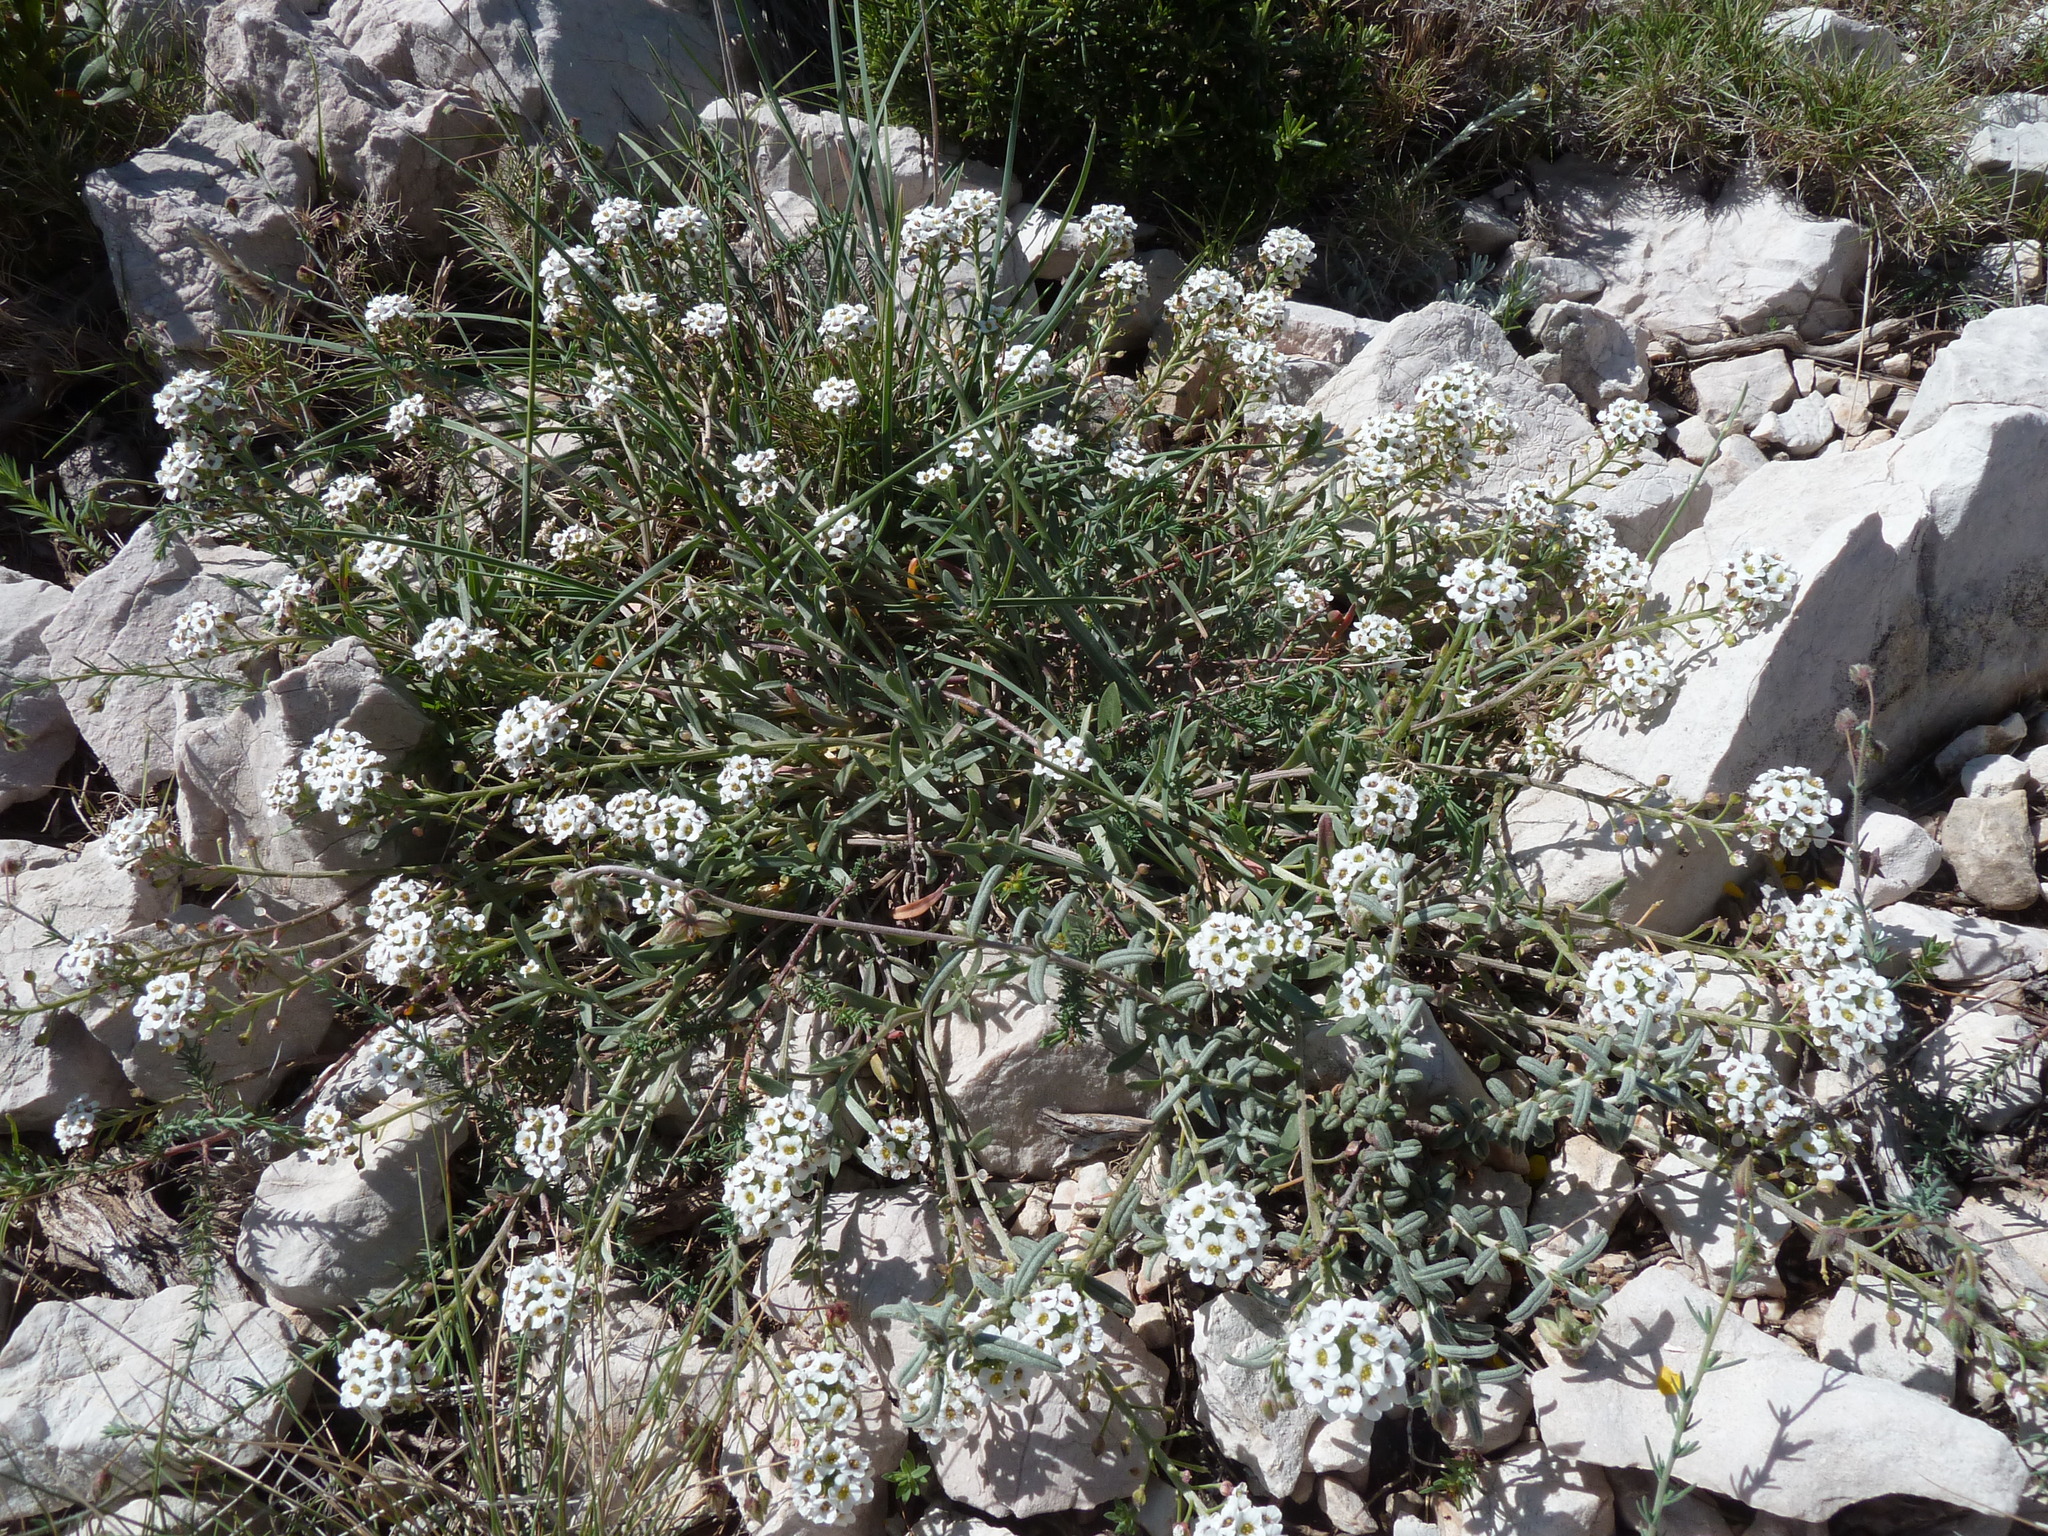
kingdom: Plantae
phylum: Tracheophyta
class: Magnoliopsida
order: Brassicales
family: Brassicaceae
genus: Lobularia
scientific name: Lobularia maritima
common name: Sweet alison
